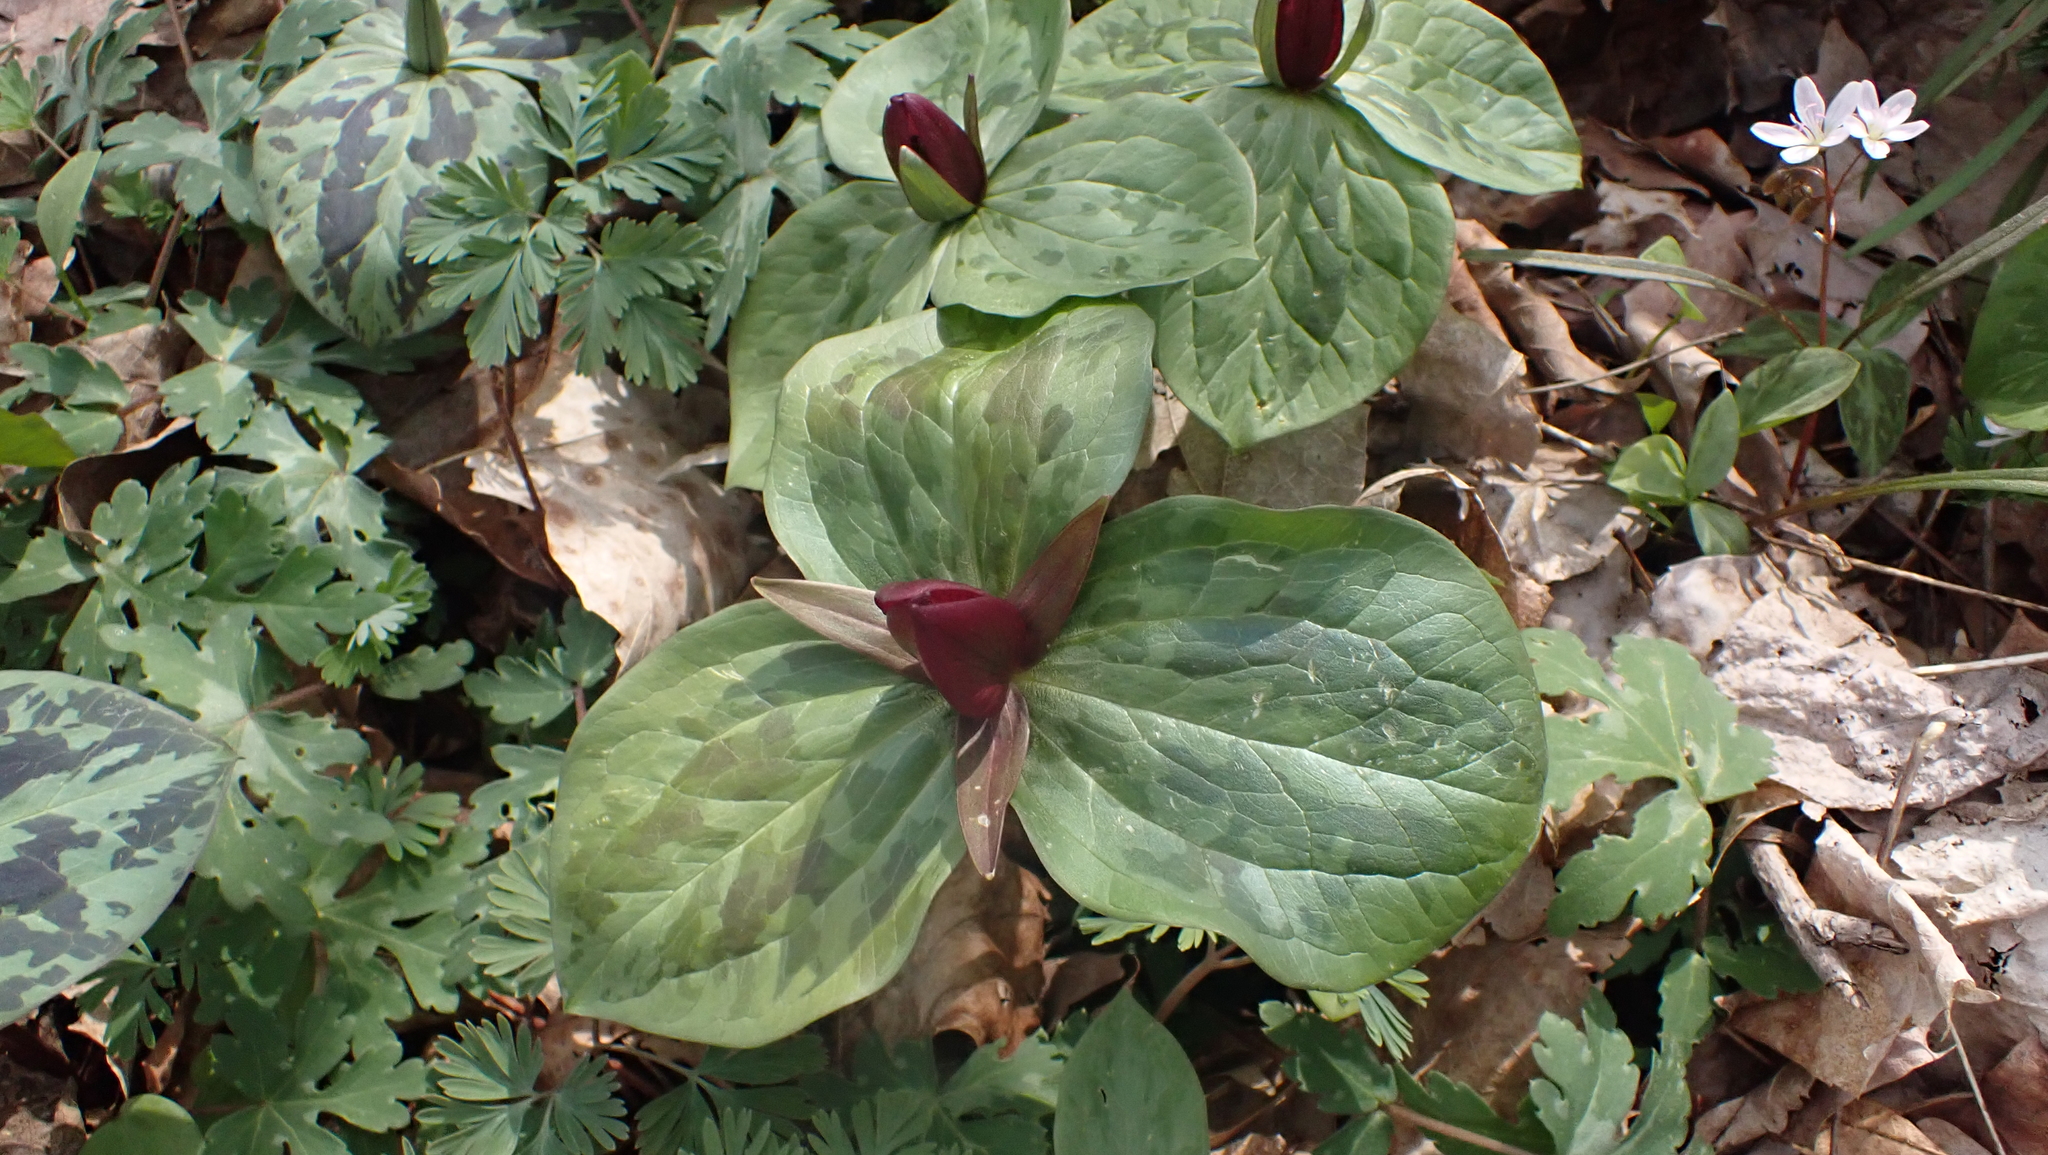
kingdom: Plantae
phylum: Tracheophyta
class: Liliopsida
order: Liliales
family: Melanthiaceae
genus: Trillium
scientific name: Trillium sessile
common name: Sessile trillium
